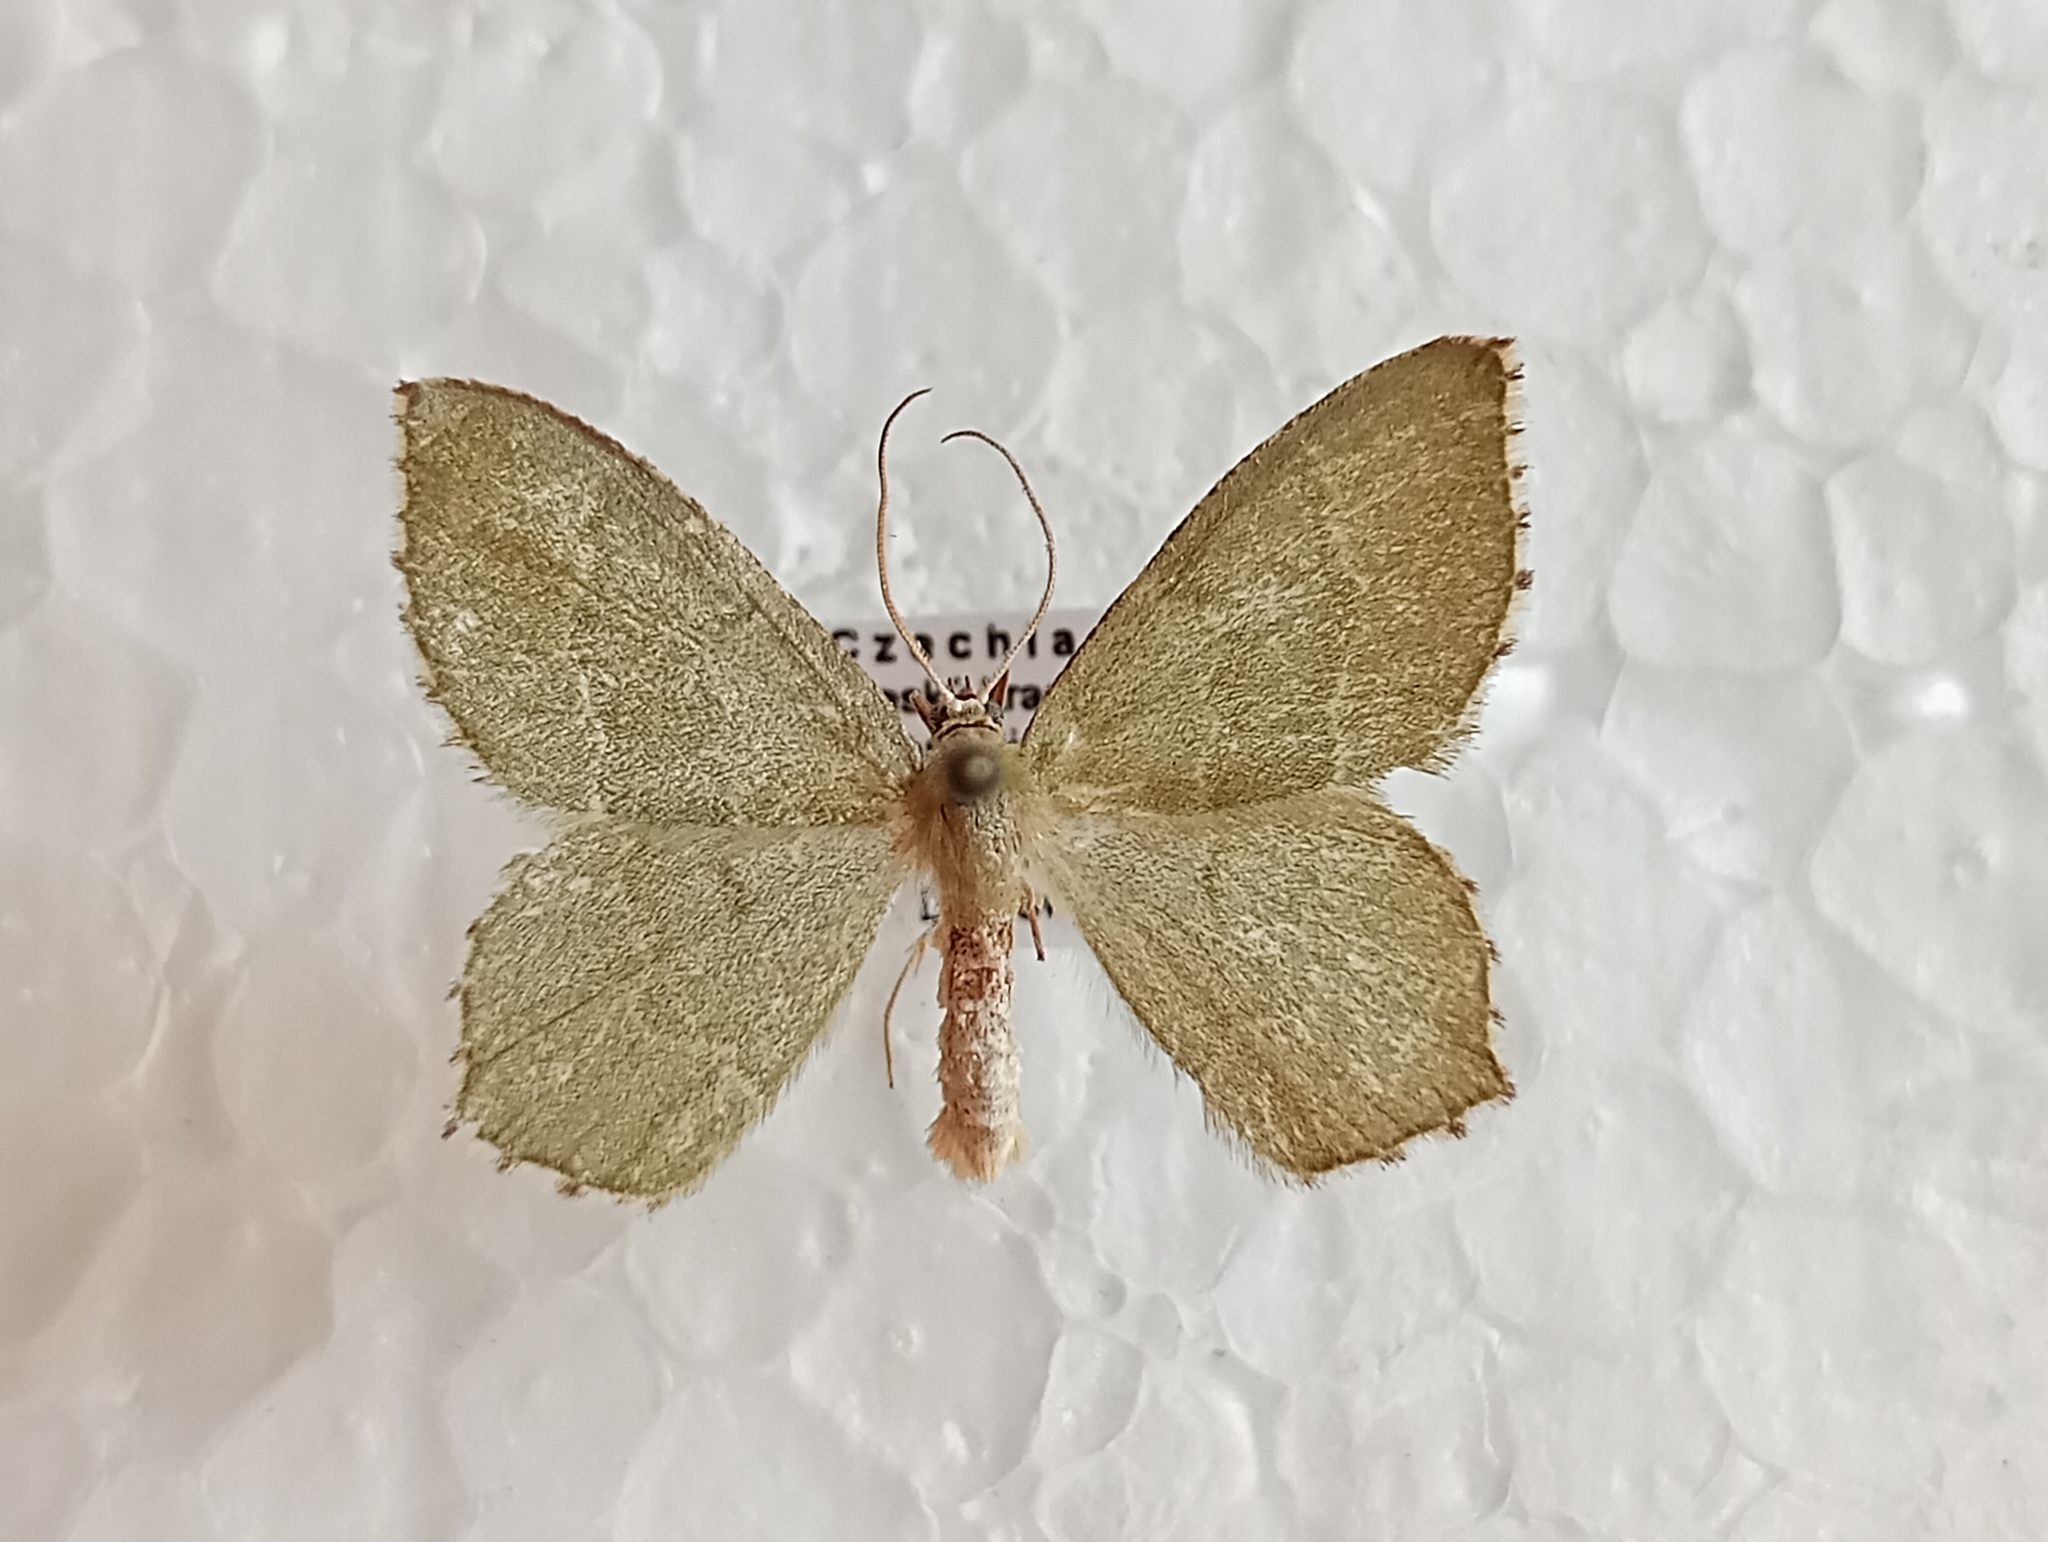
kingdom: Animalia
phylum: Arthropoda
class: Insecta
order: Lepidoptera
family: Geometridae
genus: Hemithea
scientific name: Hemithea aestivaria
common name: Common emerald
